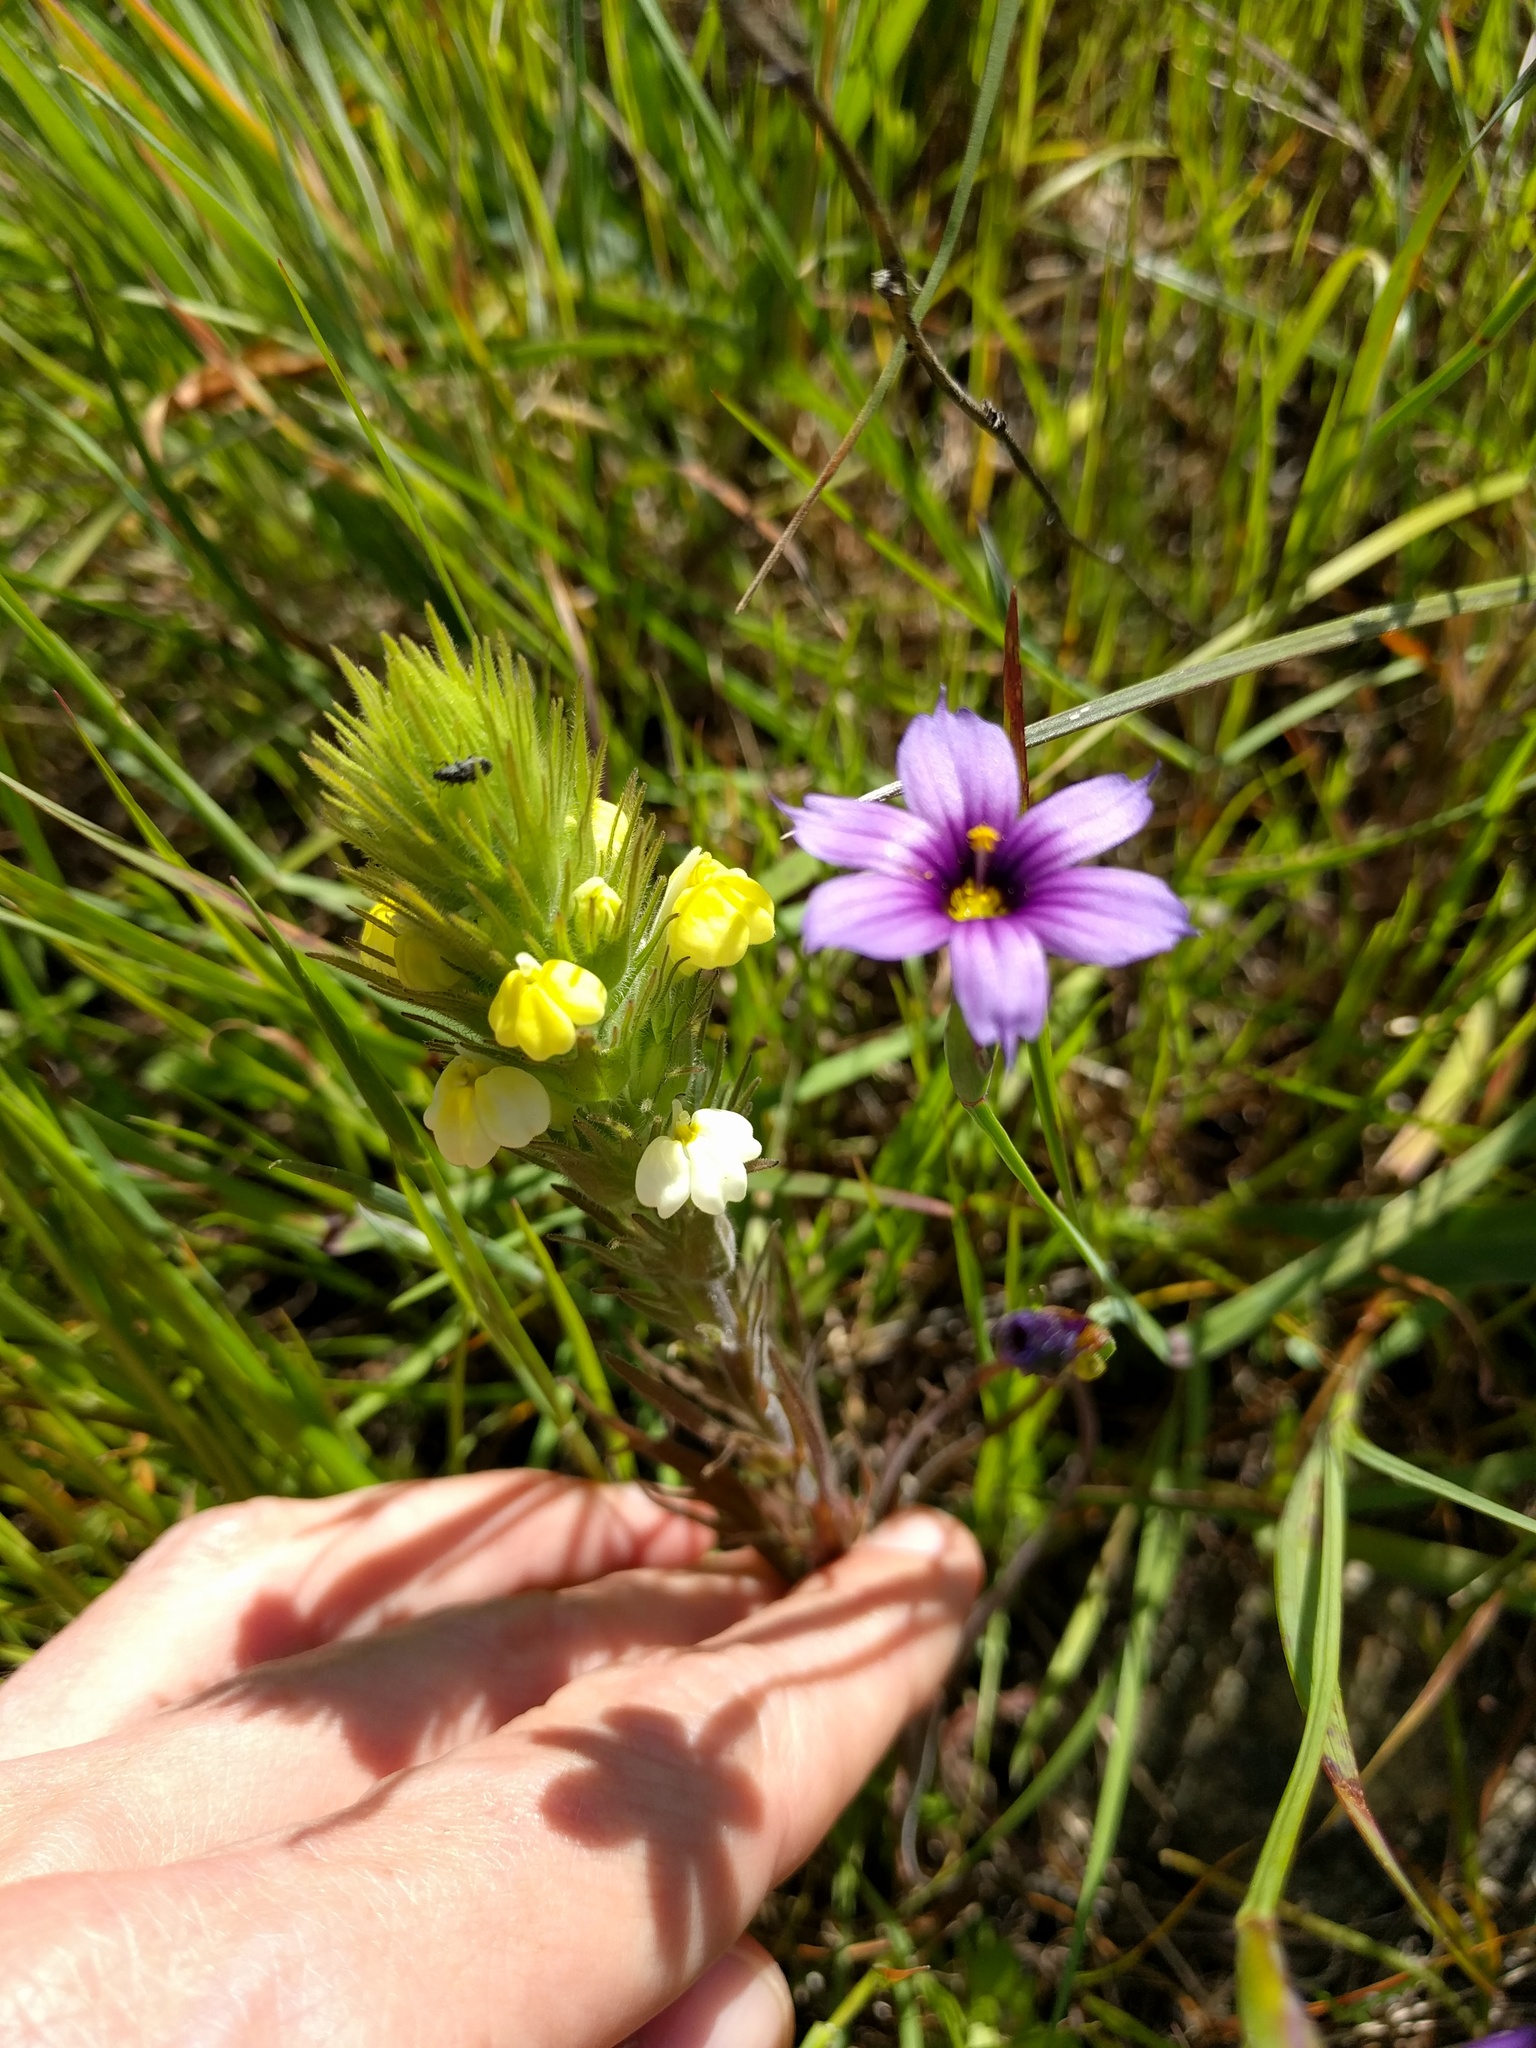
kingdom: Plantae
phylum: Tracheophyta
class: Magnoliopsida
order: Lamiales
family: Orobanchaceae
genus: Castilleja
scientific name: Castilleja rubicundula
